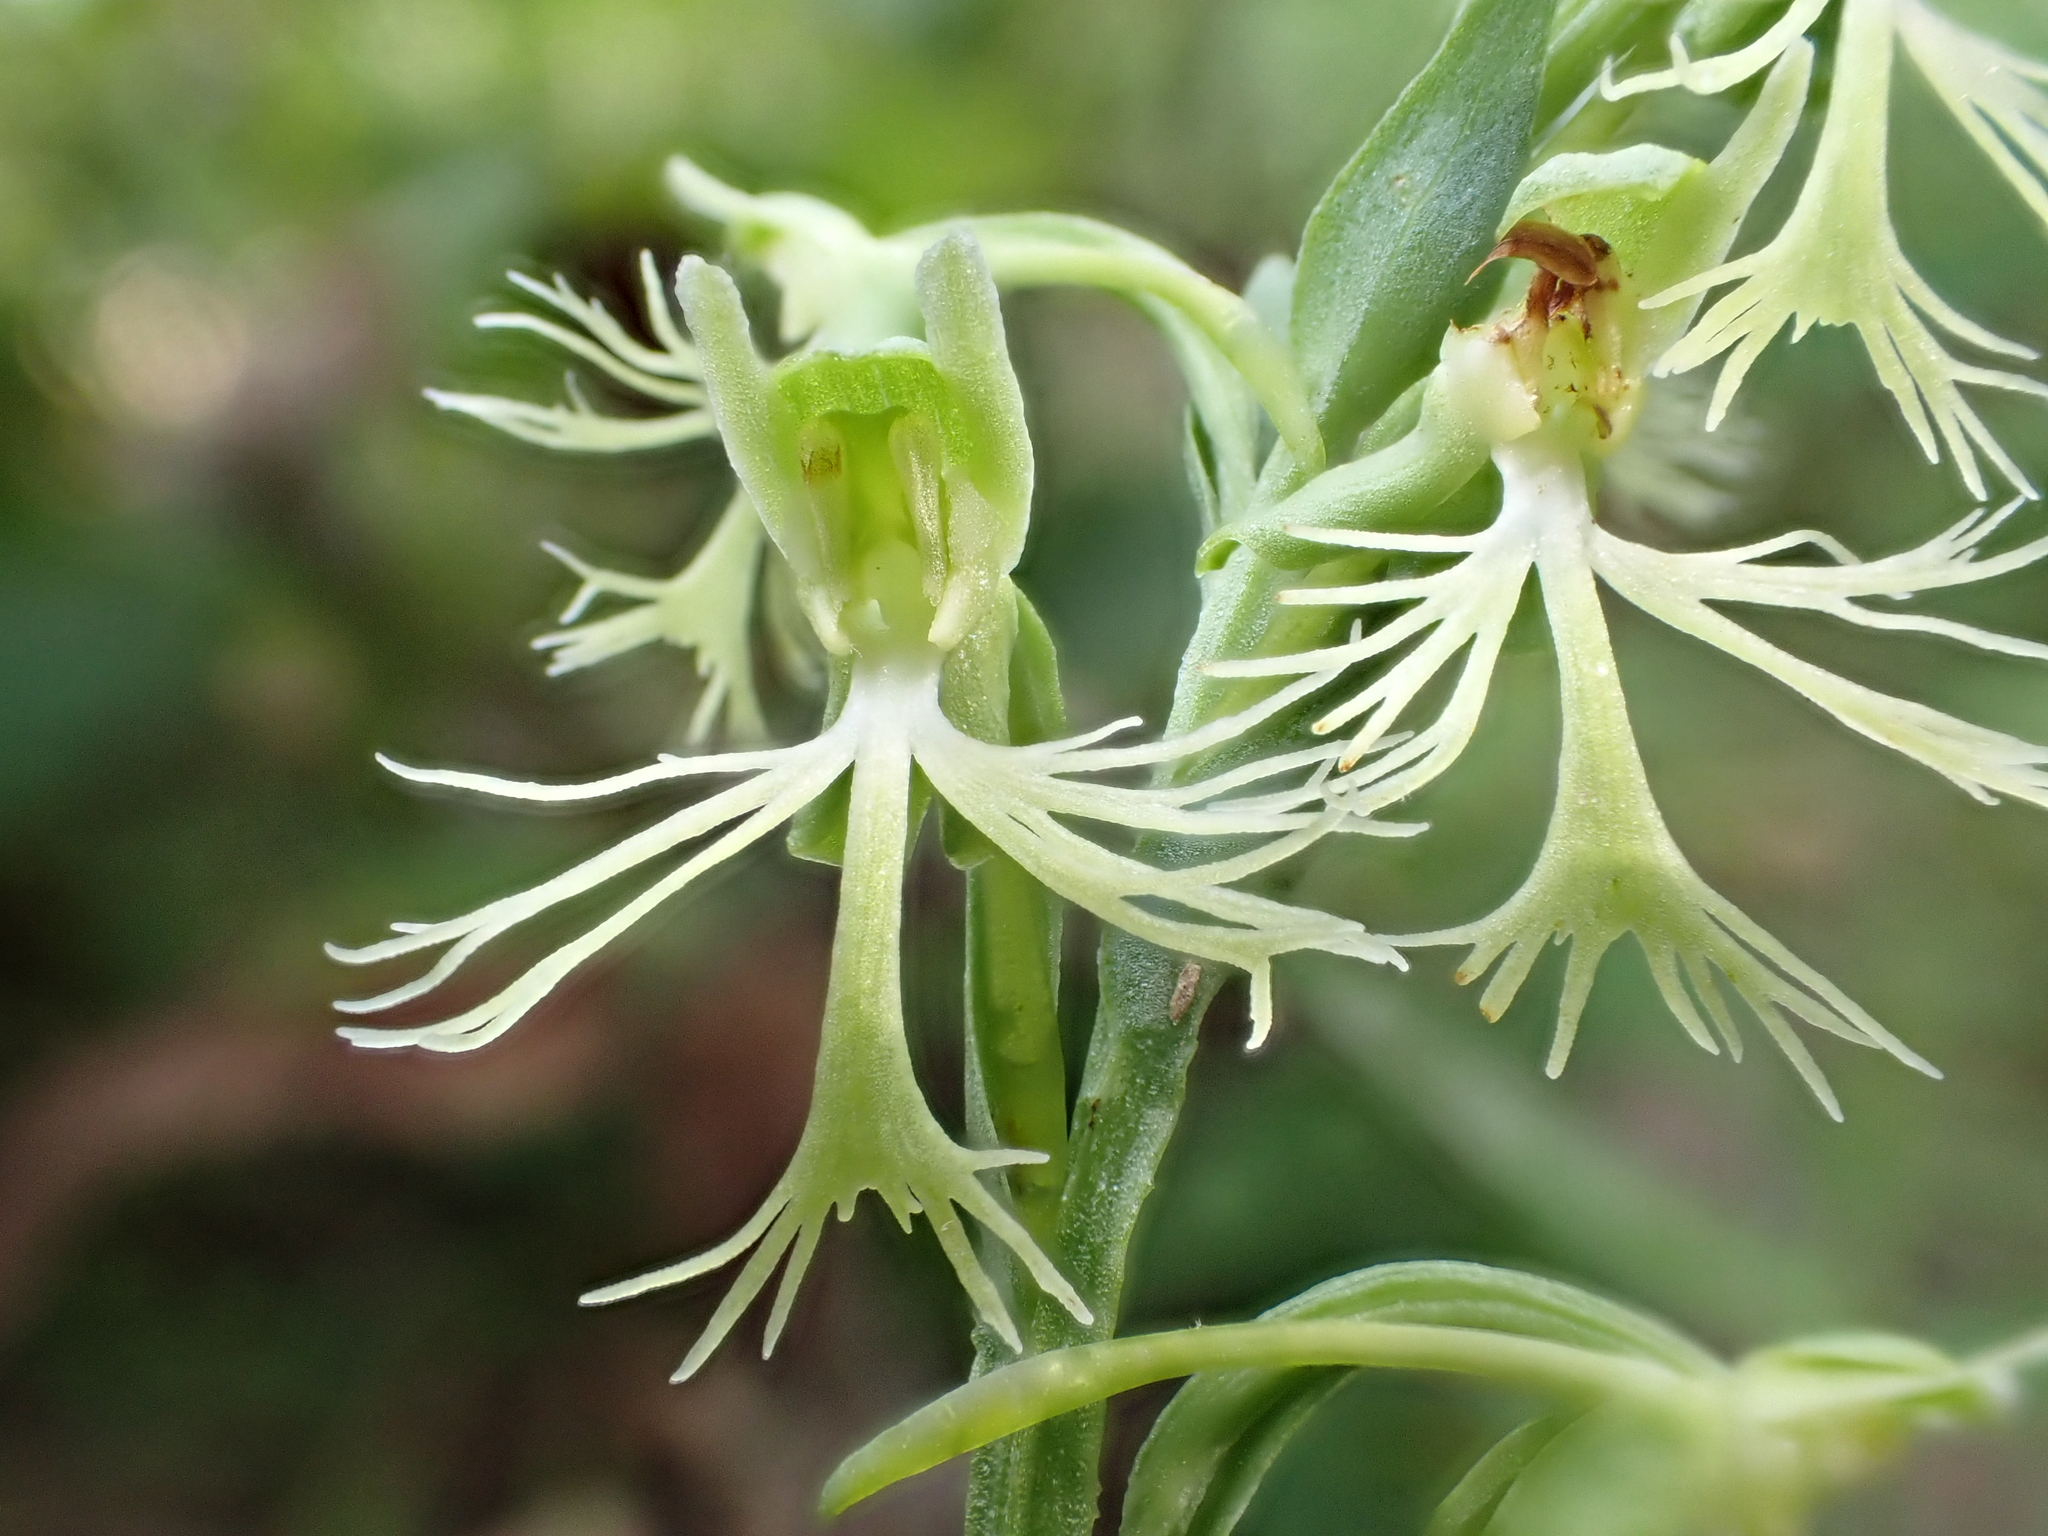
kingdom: Plantae
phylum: Tracheophyta
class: Liliopsida
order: Asparagales
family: Orchidaceae
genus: Platanthera
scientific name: Platanthera lacera
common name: Green fringed orchid
